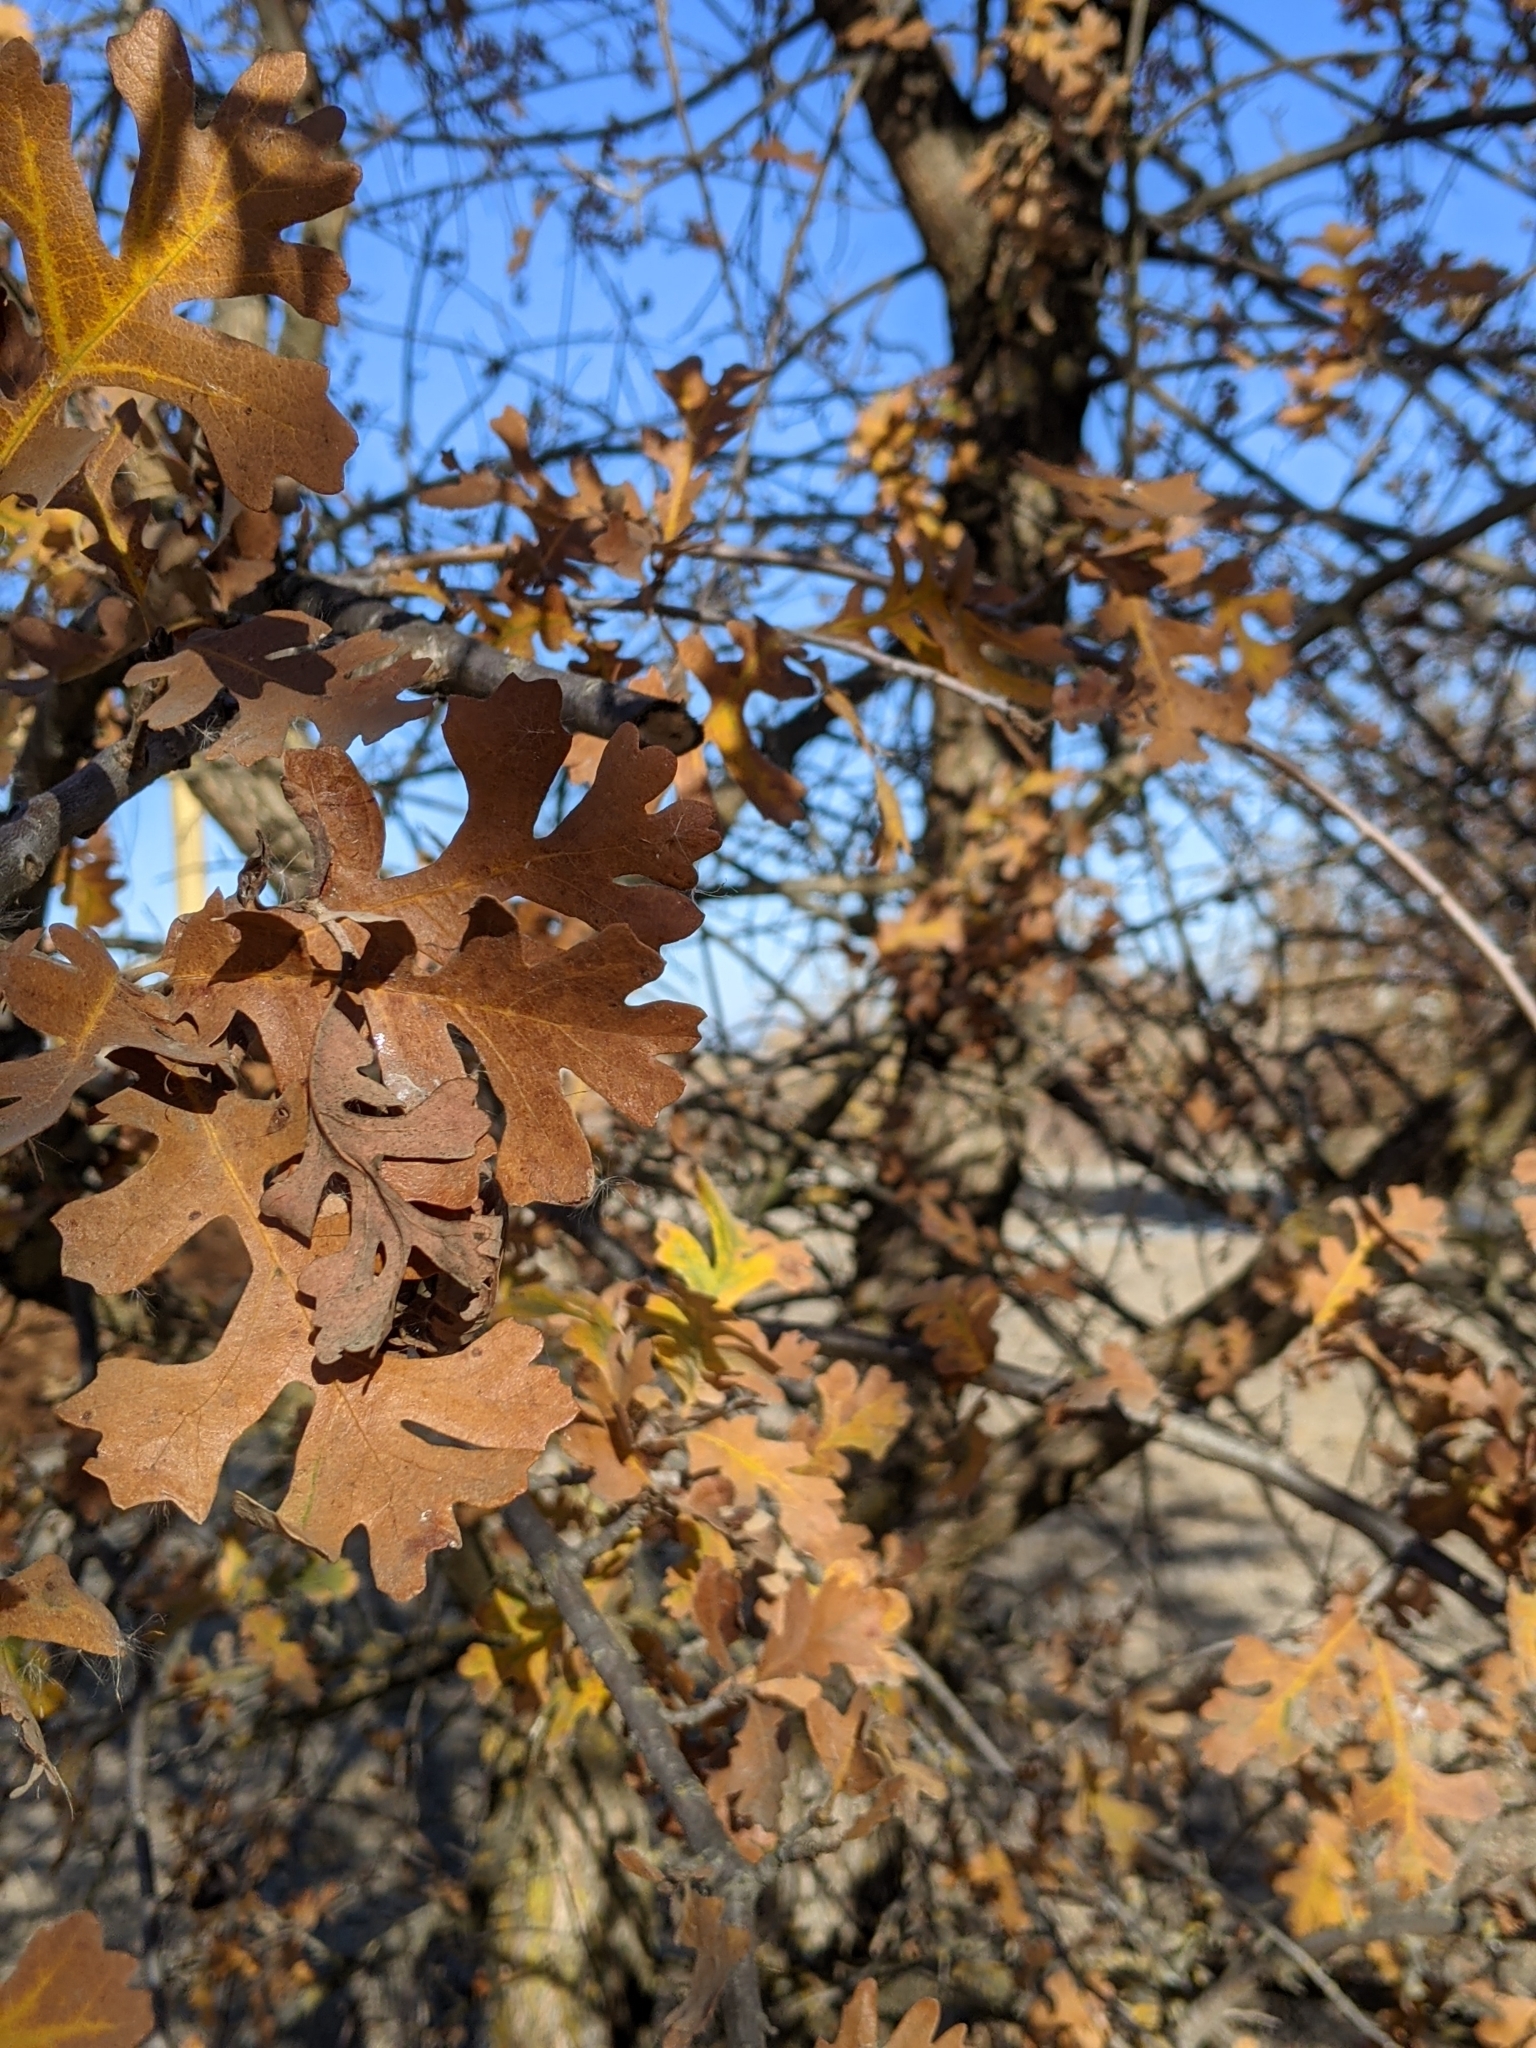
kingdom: Plantae
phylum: Tracheophyta
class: Magnoliopsida
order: Fagales
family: Fagaceae
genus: Quercus
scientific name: Quercus lobata
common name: Valley oak
